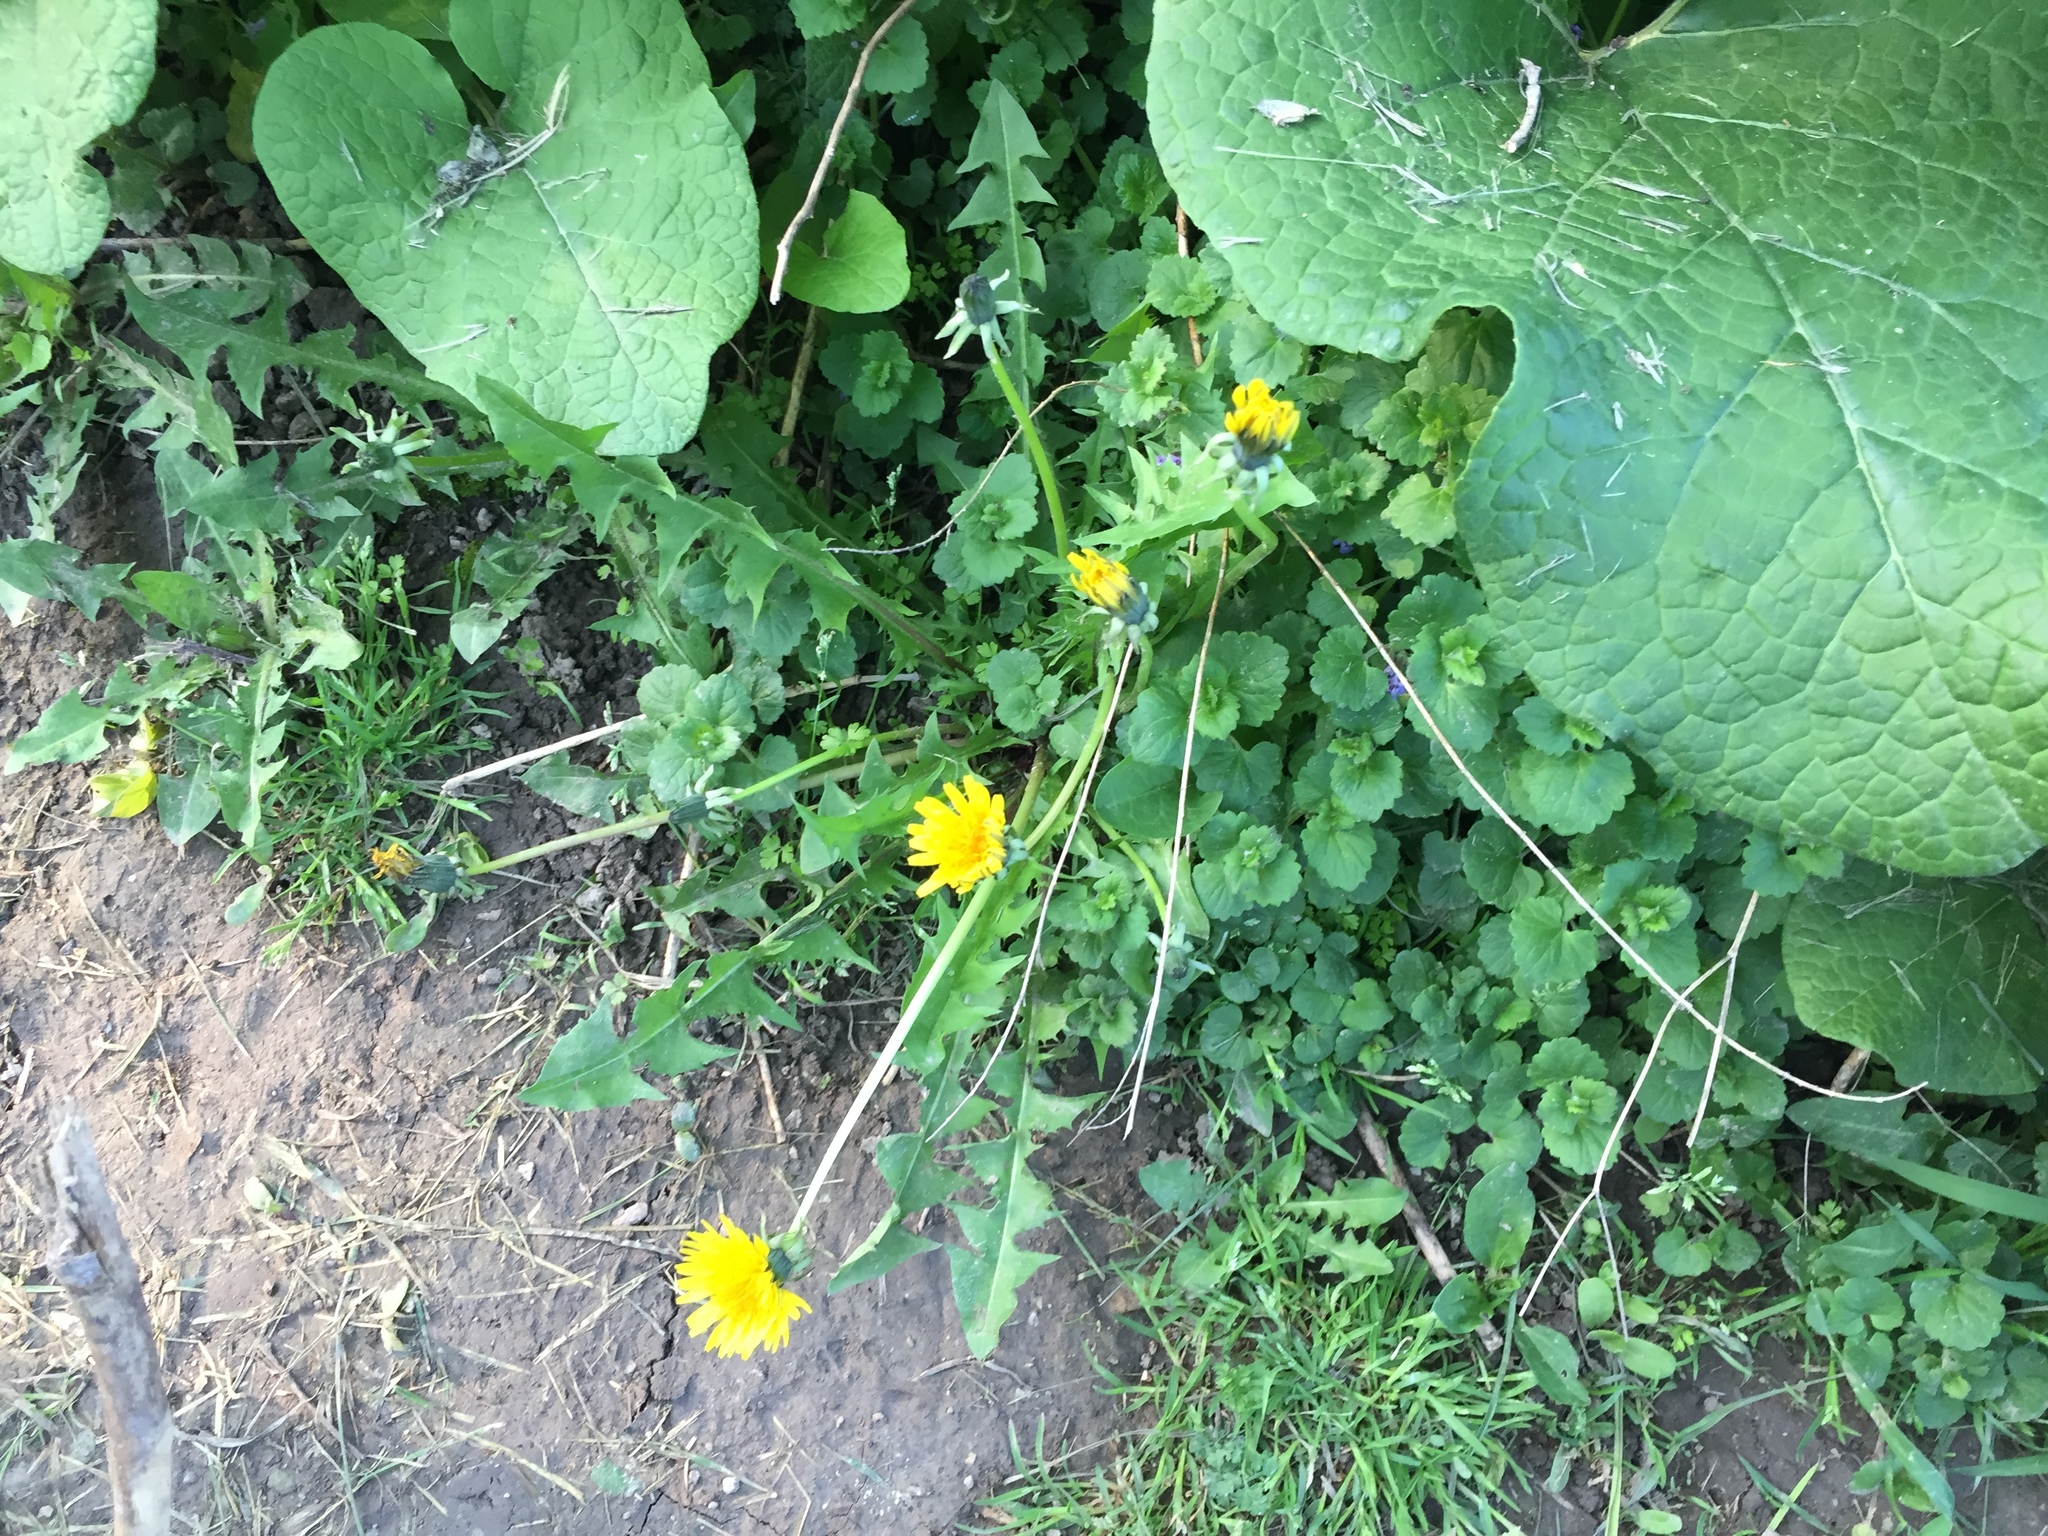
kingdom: Plantae
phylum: Tracheophyta
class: Magnoliopsida
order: Asterales
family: Asteraceae
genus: Taraxacum
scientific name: Taraxacum officinale
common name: Common dandelion
